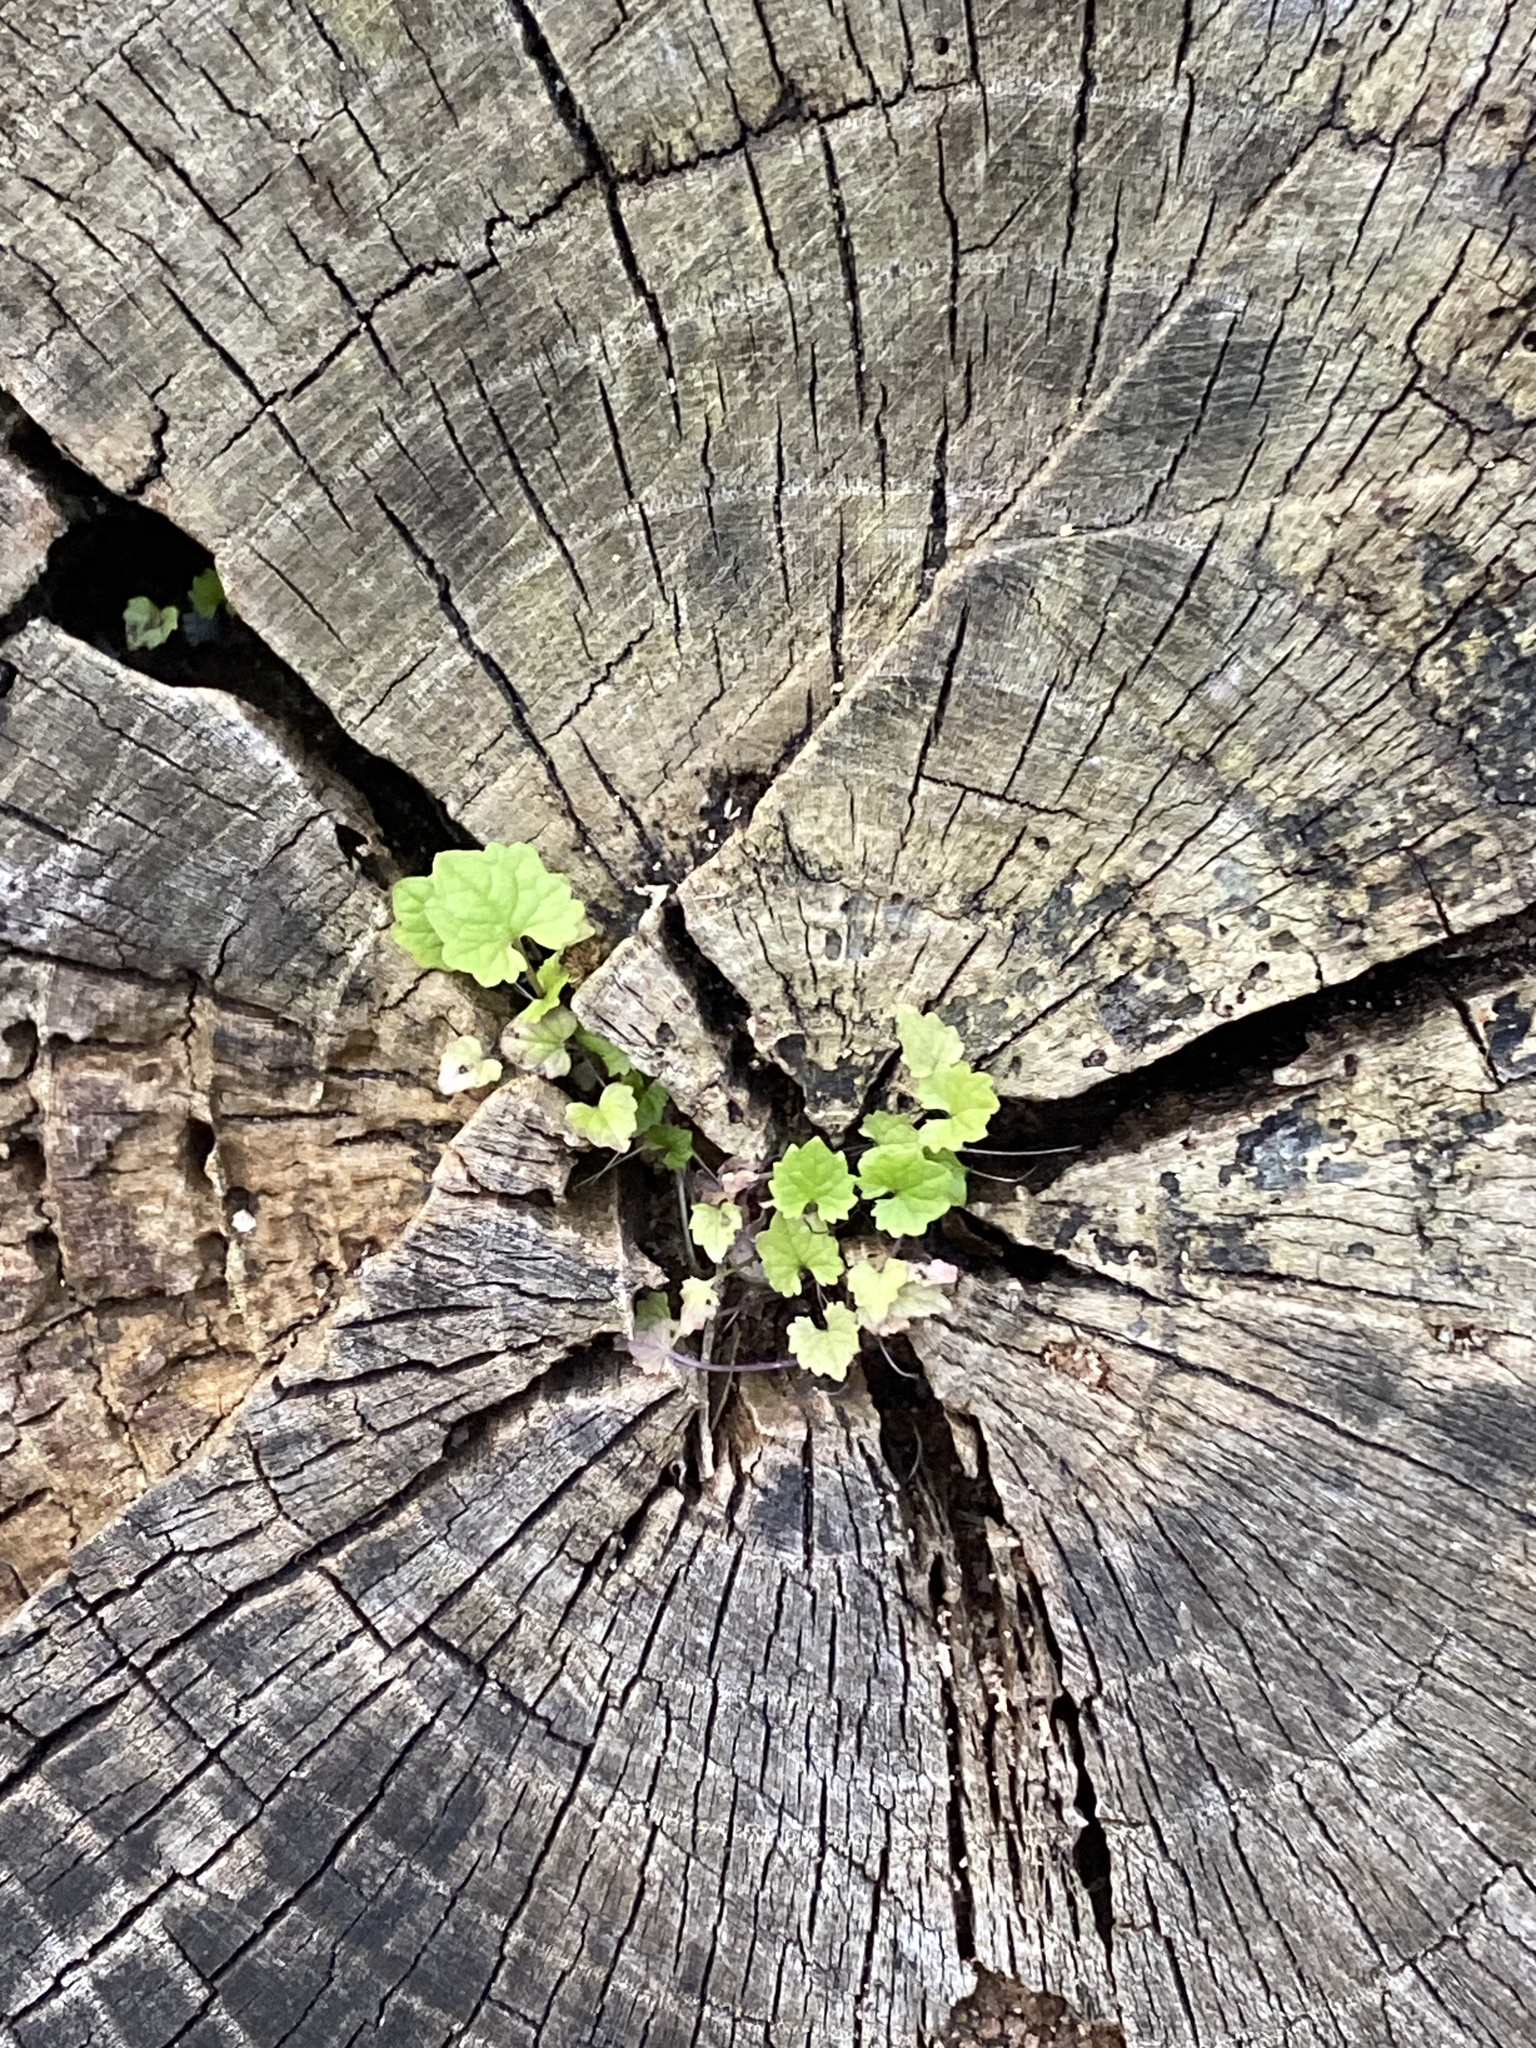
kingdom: Plantae
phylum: Tracheophyta
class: Magnoliopsida
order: Brassicales
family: Brassicaceae
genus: Alliaria
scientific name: Alliaria petiolata
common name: Garlic mustard
